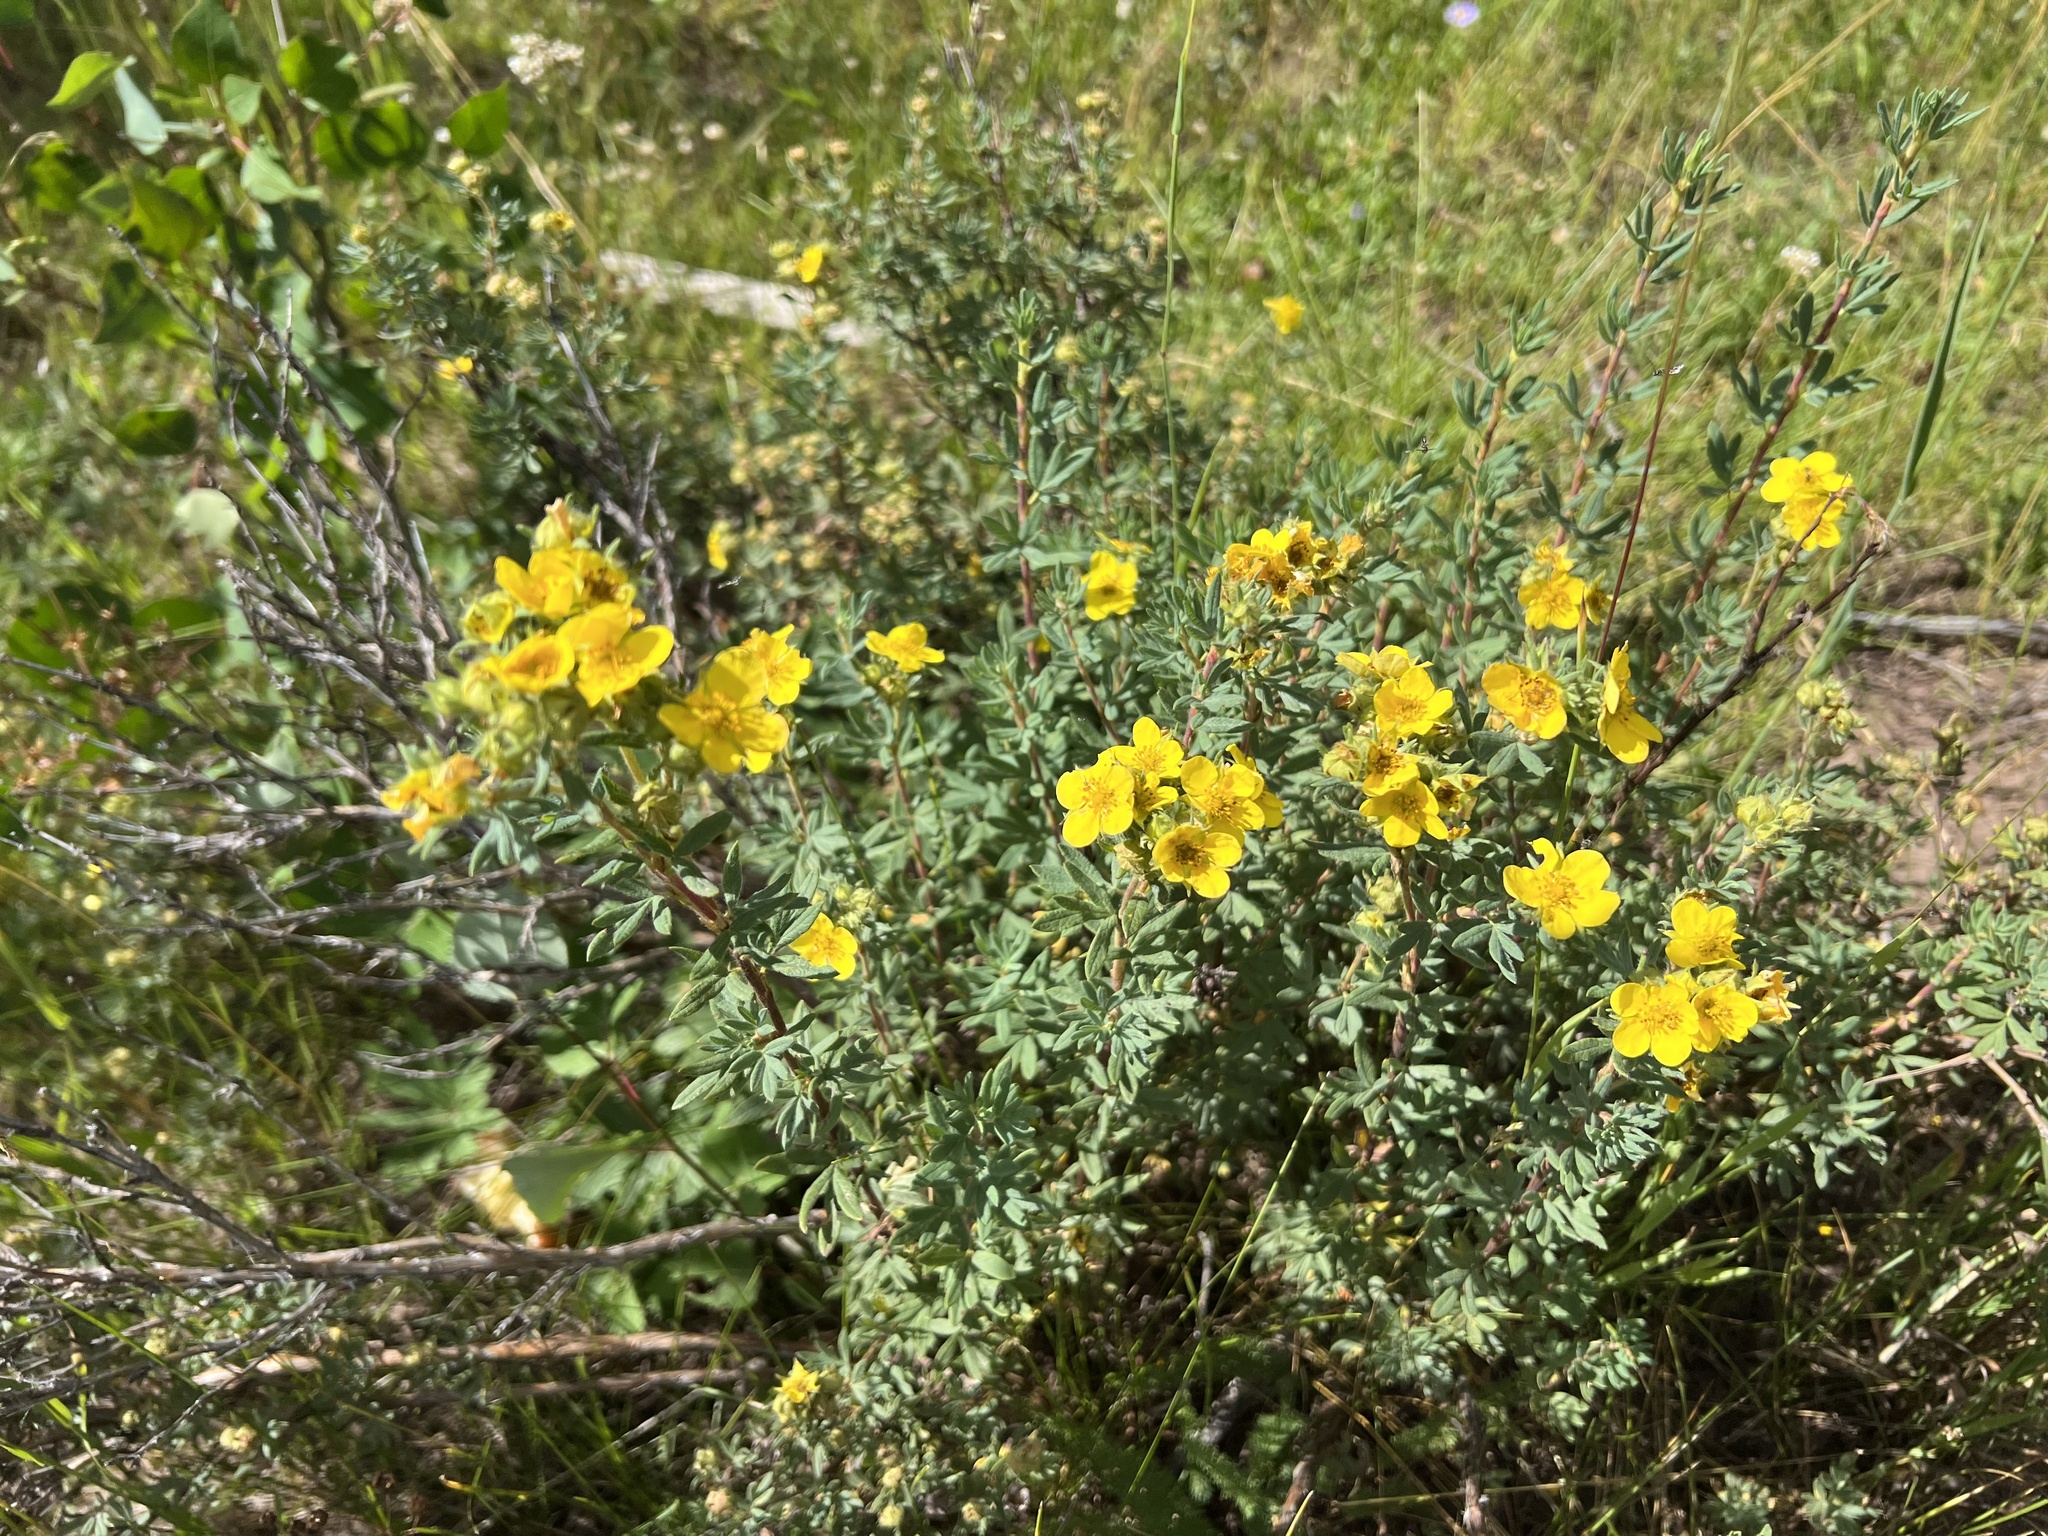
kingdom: Plantae
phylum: Tracheophyta
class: Magnoliopsida
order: Rosales
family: Rosaceae
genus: Dasiphora
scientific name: Dasiphora fruticosa
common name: Shrubby cinquefoil
